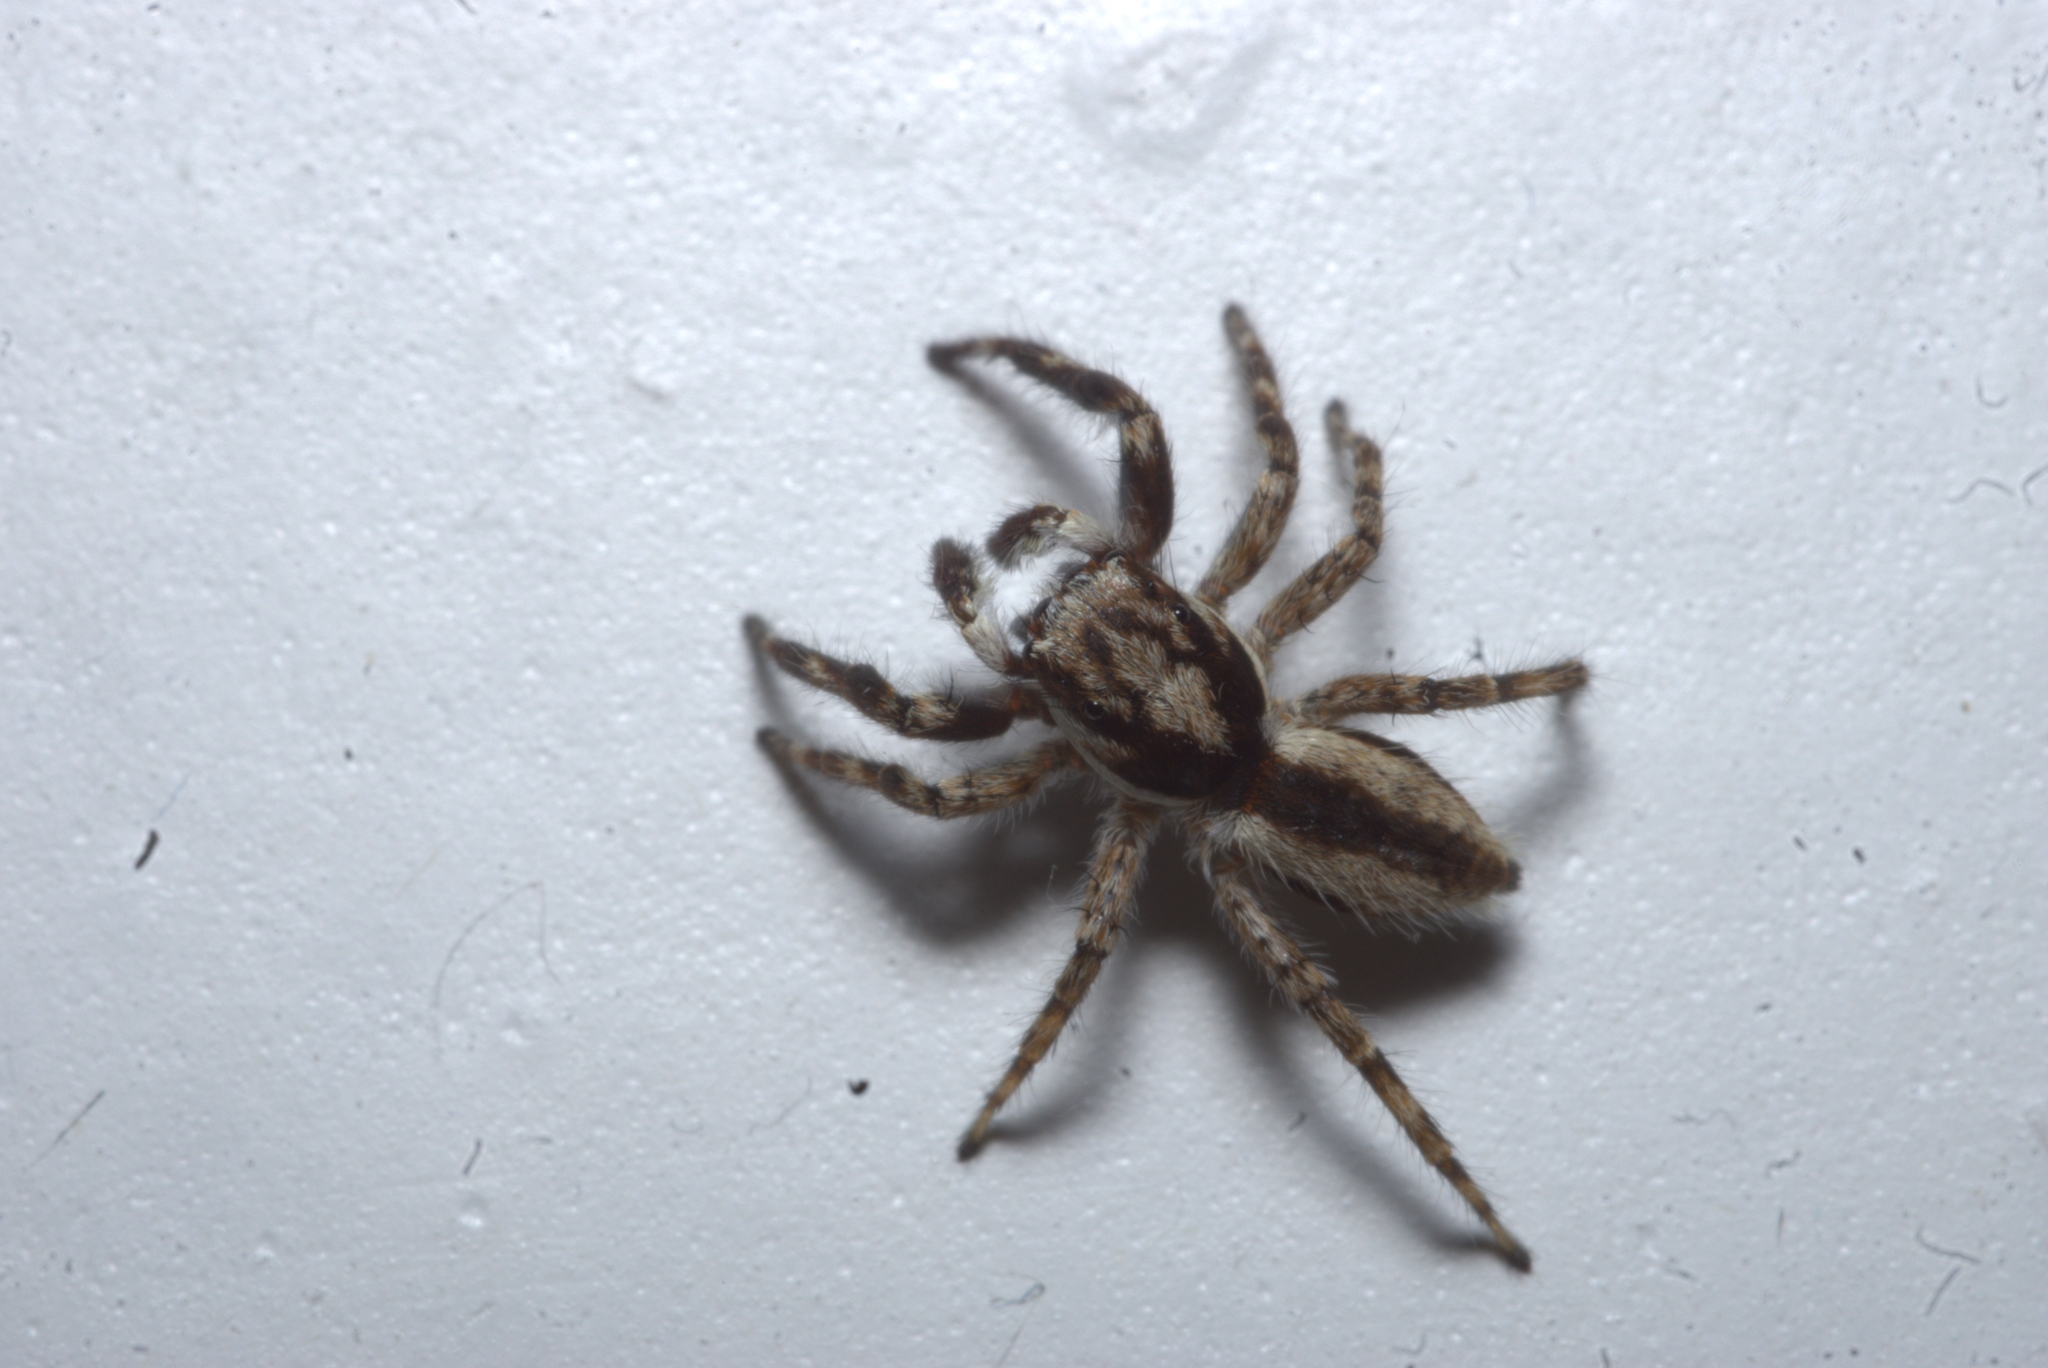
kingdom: Animalia
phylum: Arthropoda
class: Arachnida
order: Araneae
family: Salticidae
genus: Menemerus
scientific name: Menemerus bivittatus
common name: Gray wall jumper
